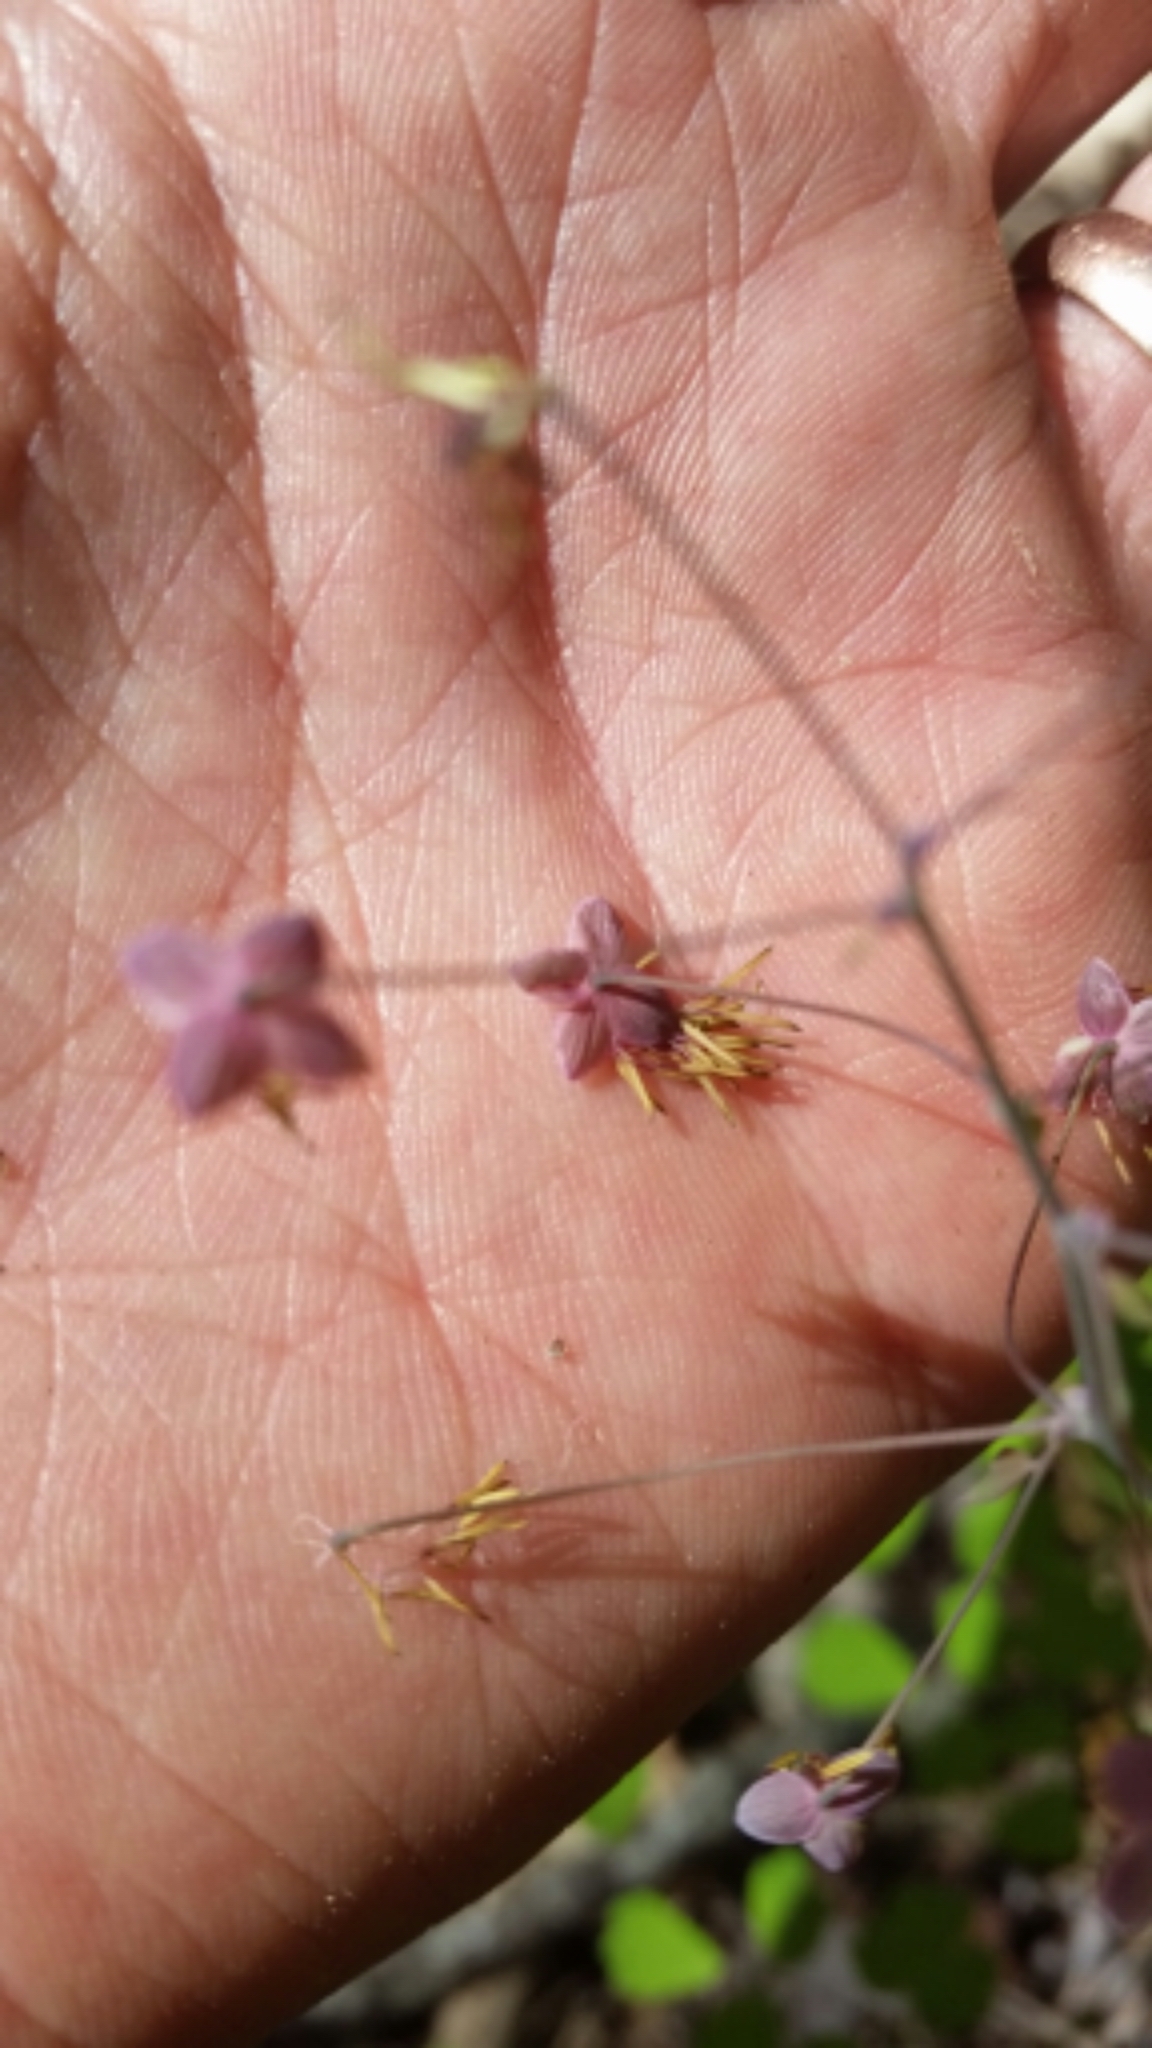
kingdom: Plantae
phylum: Tracheophyta
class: Magnoliopsida
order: Ranunculales
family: Ranunculaceae
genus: Thalictrum
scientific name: Thalictrum dioicum
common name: Early meadow-rue
